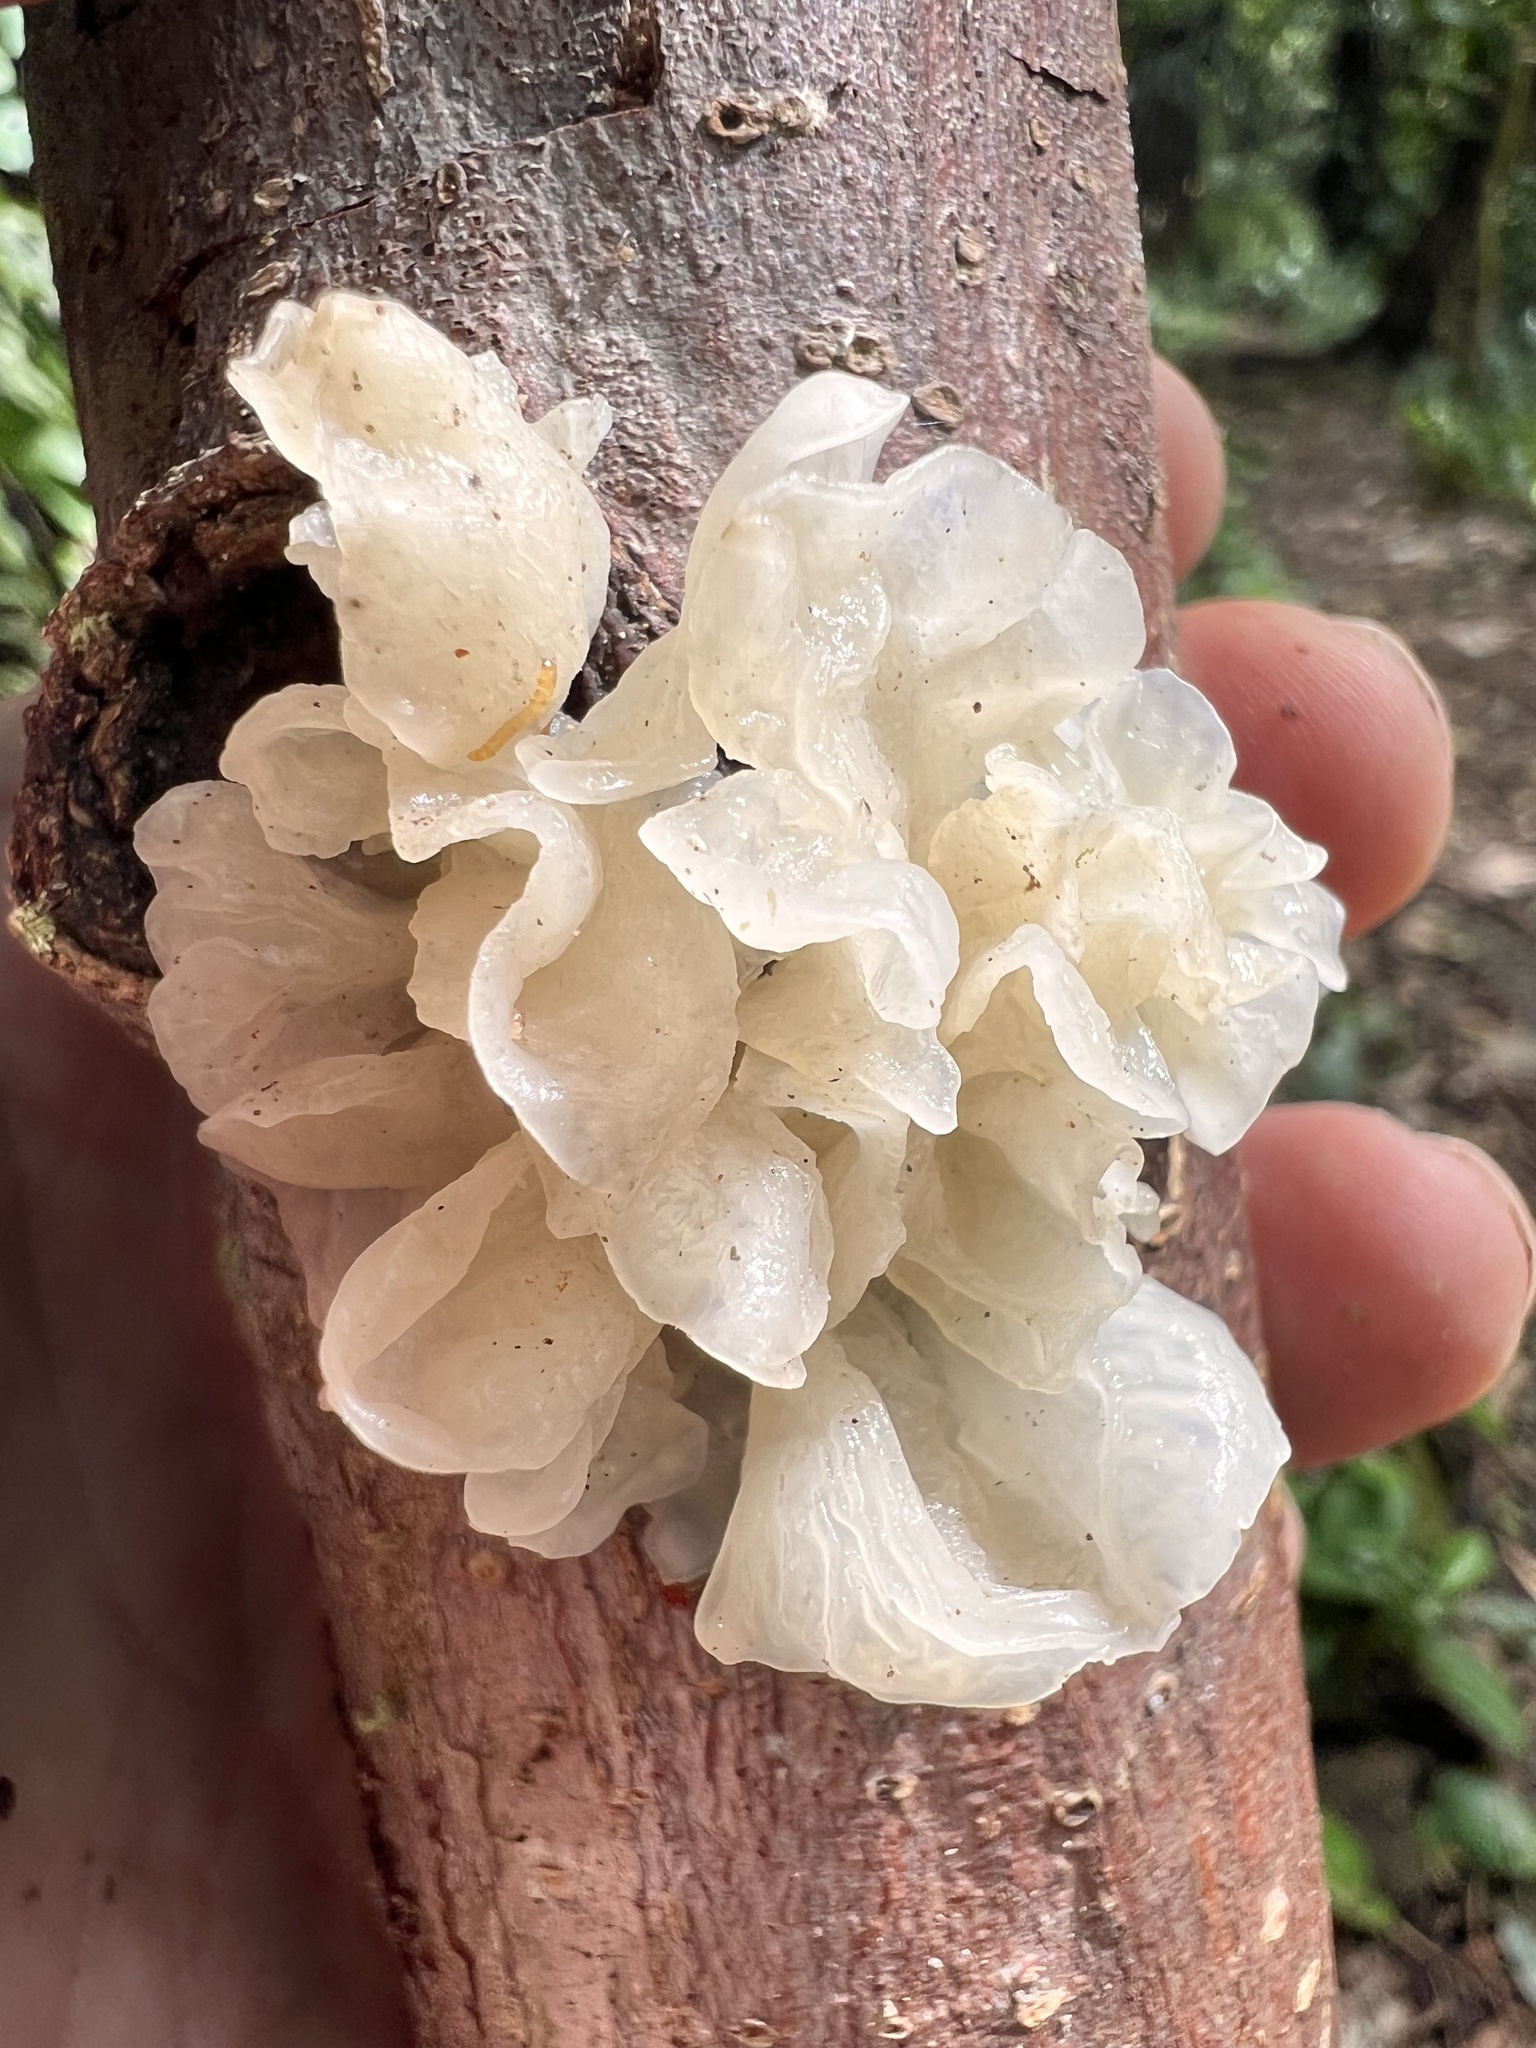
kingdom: Fungi
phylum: Basidiomycota
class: Tremellomycetes
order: Tremellales
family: Tremellaceae
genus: Tremella
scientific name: Tremella fuciformis
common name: Snow fungus
